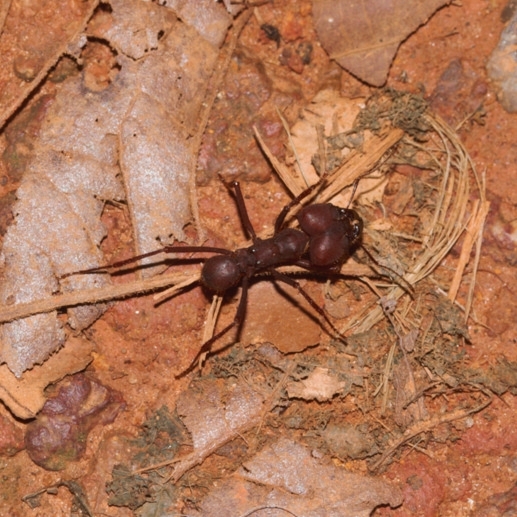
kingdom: Animalia
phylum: Arthropoda
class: Insecta
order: Hymenoptera
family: Formicidae
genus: Atta
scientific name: Atta
